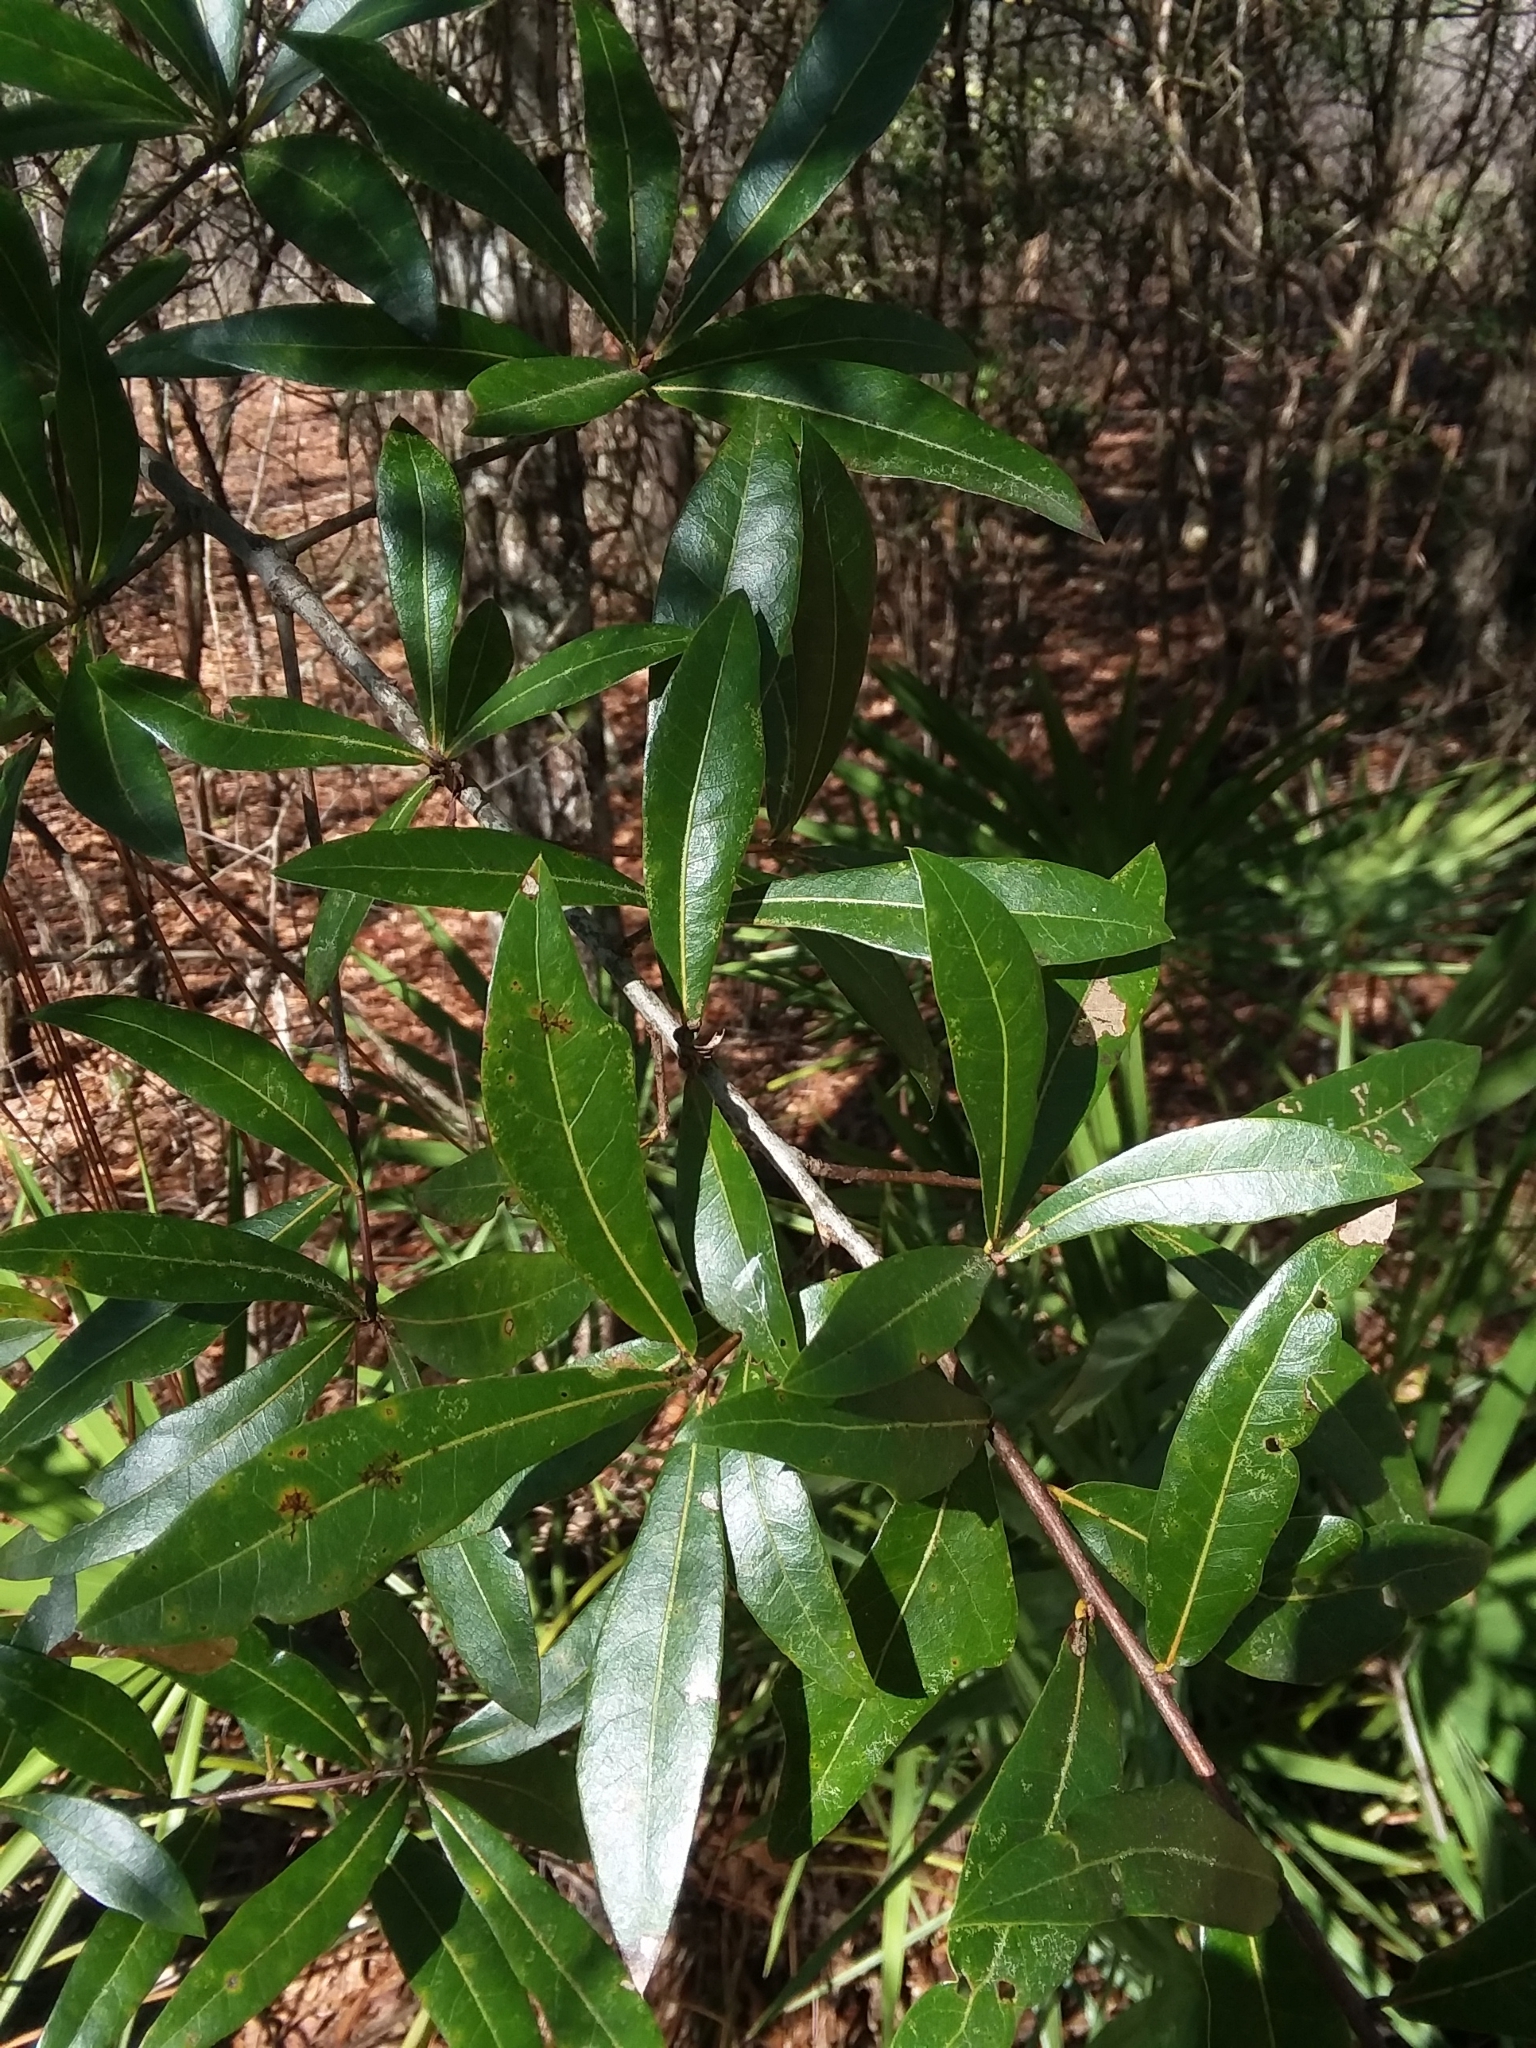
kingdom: Plantae
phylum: Tracheophyta
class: Magnoliopsida
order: Fagales
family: Fagaceae
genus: Quercus
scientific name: Quercus hemisphaerica
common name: Darlington oak
